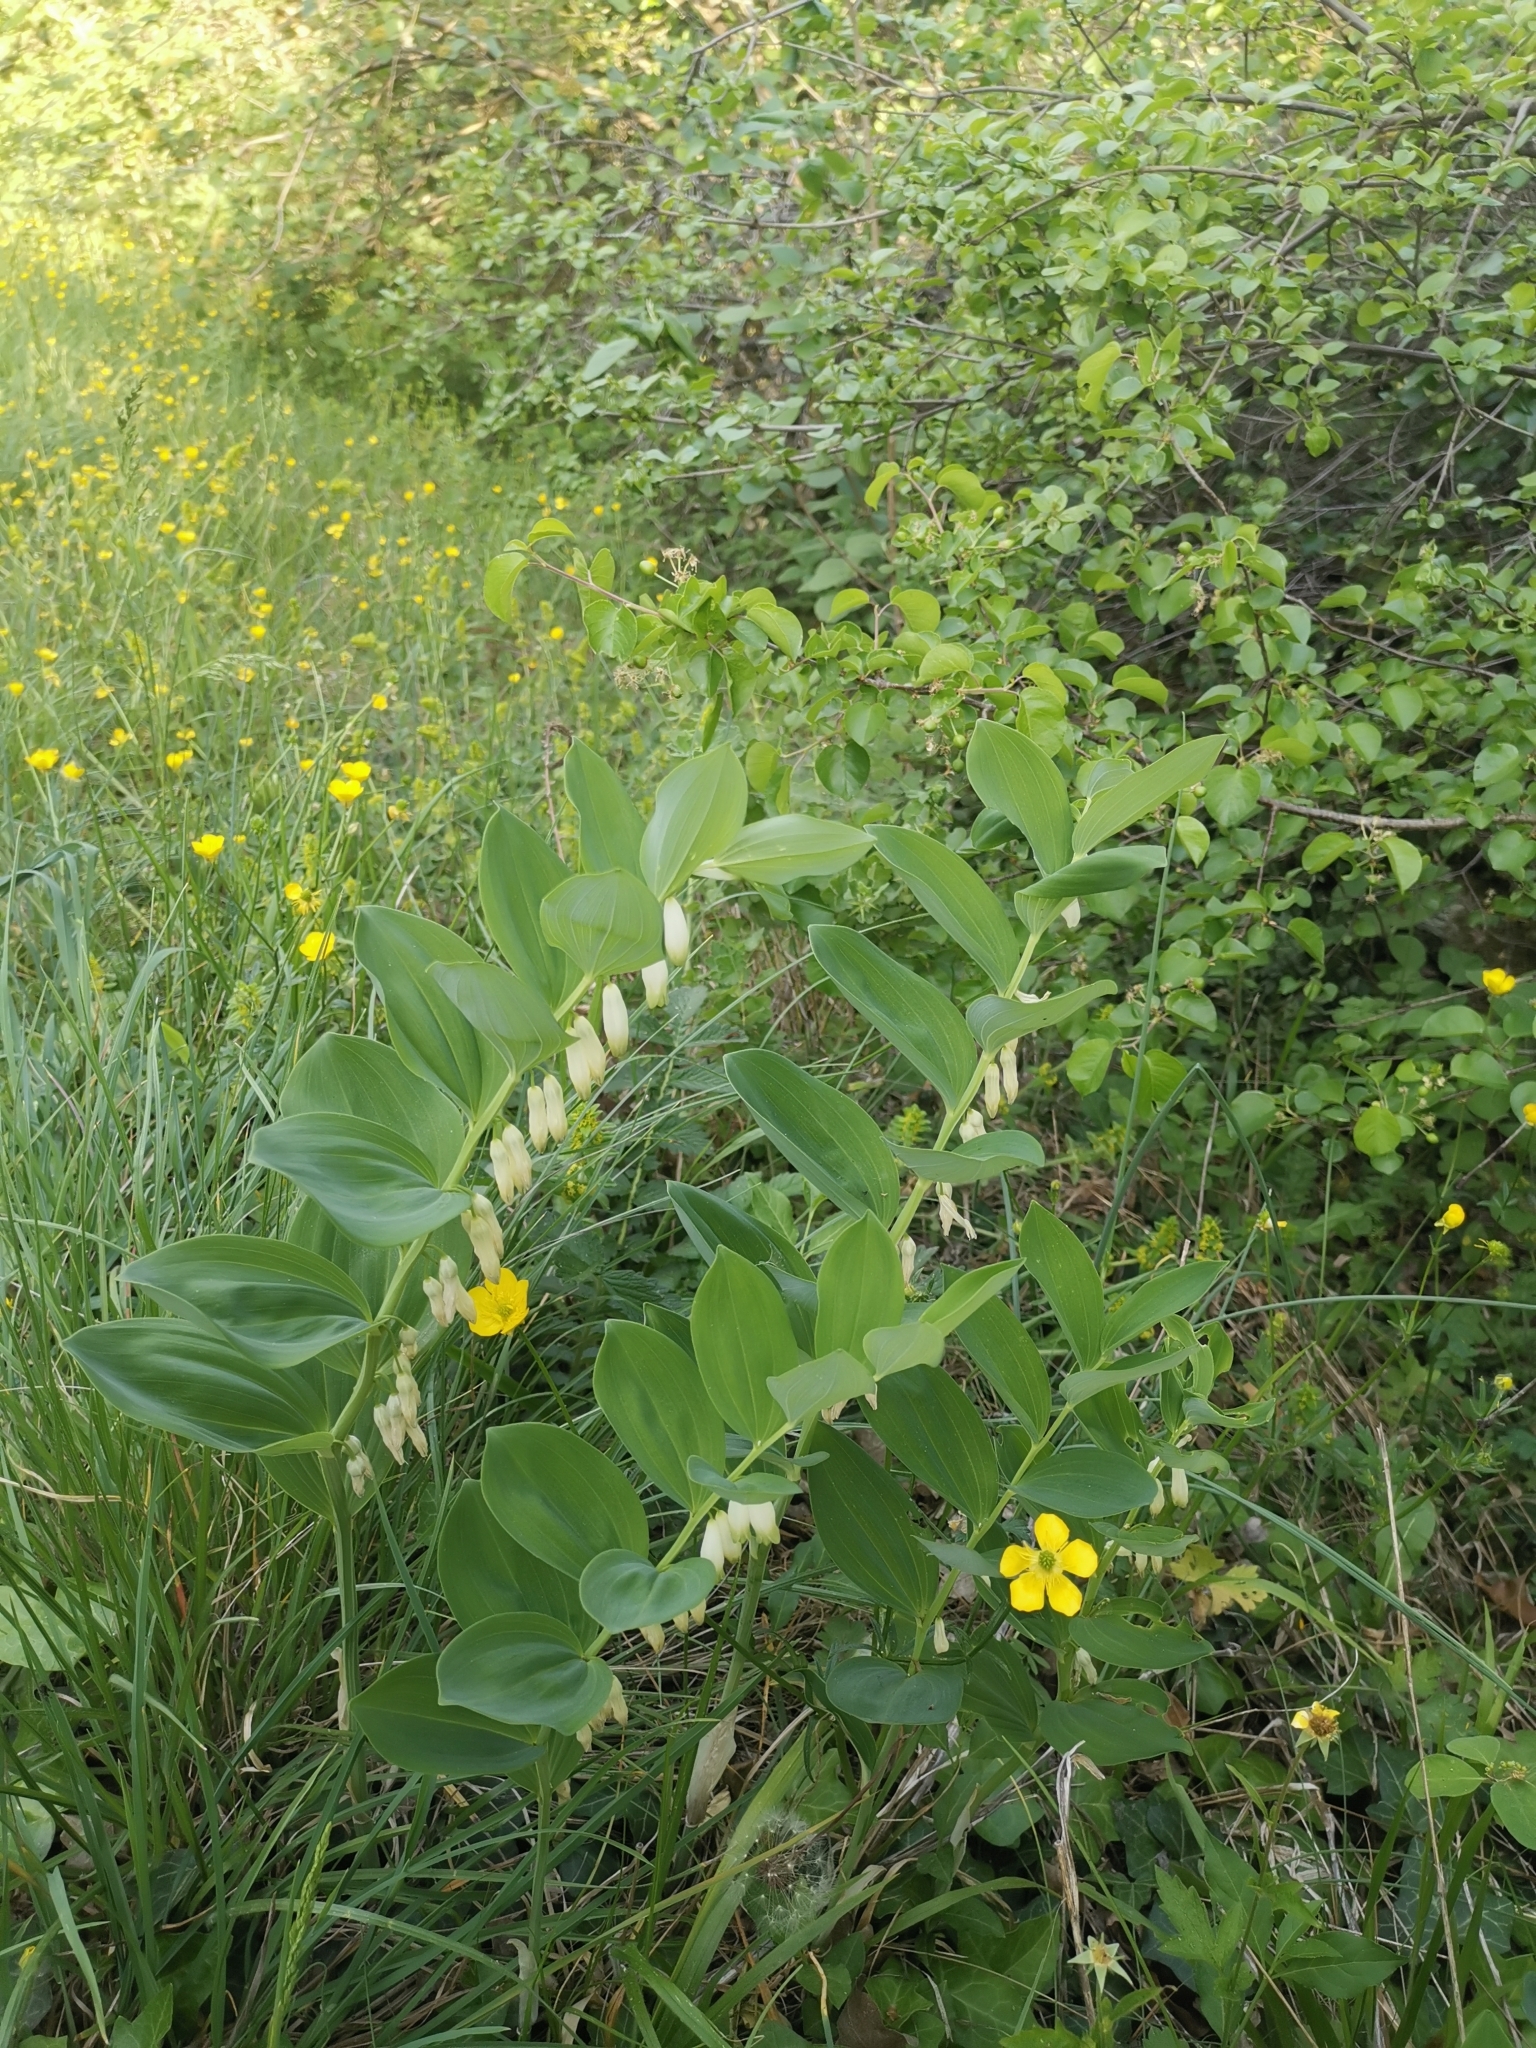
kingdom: Plantae
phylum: Tracheophyta
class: Liliopsida
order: Asparagales
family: Asparagaceae
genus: Polygonatum
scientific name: Polygonatum multiflorum
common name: Solomon's-seal
